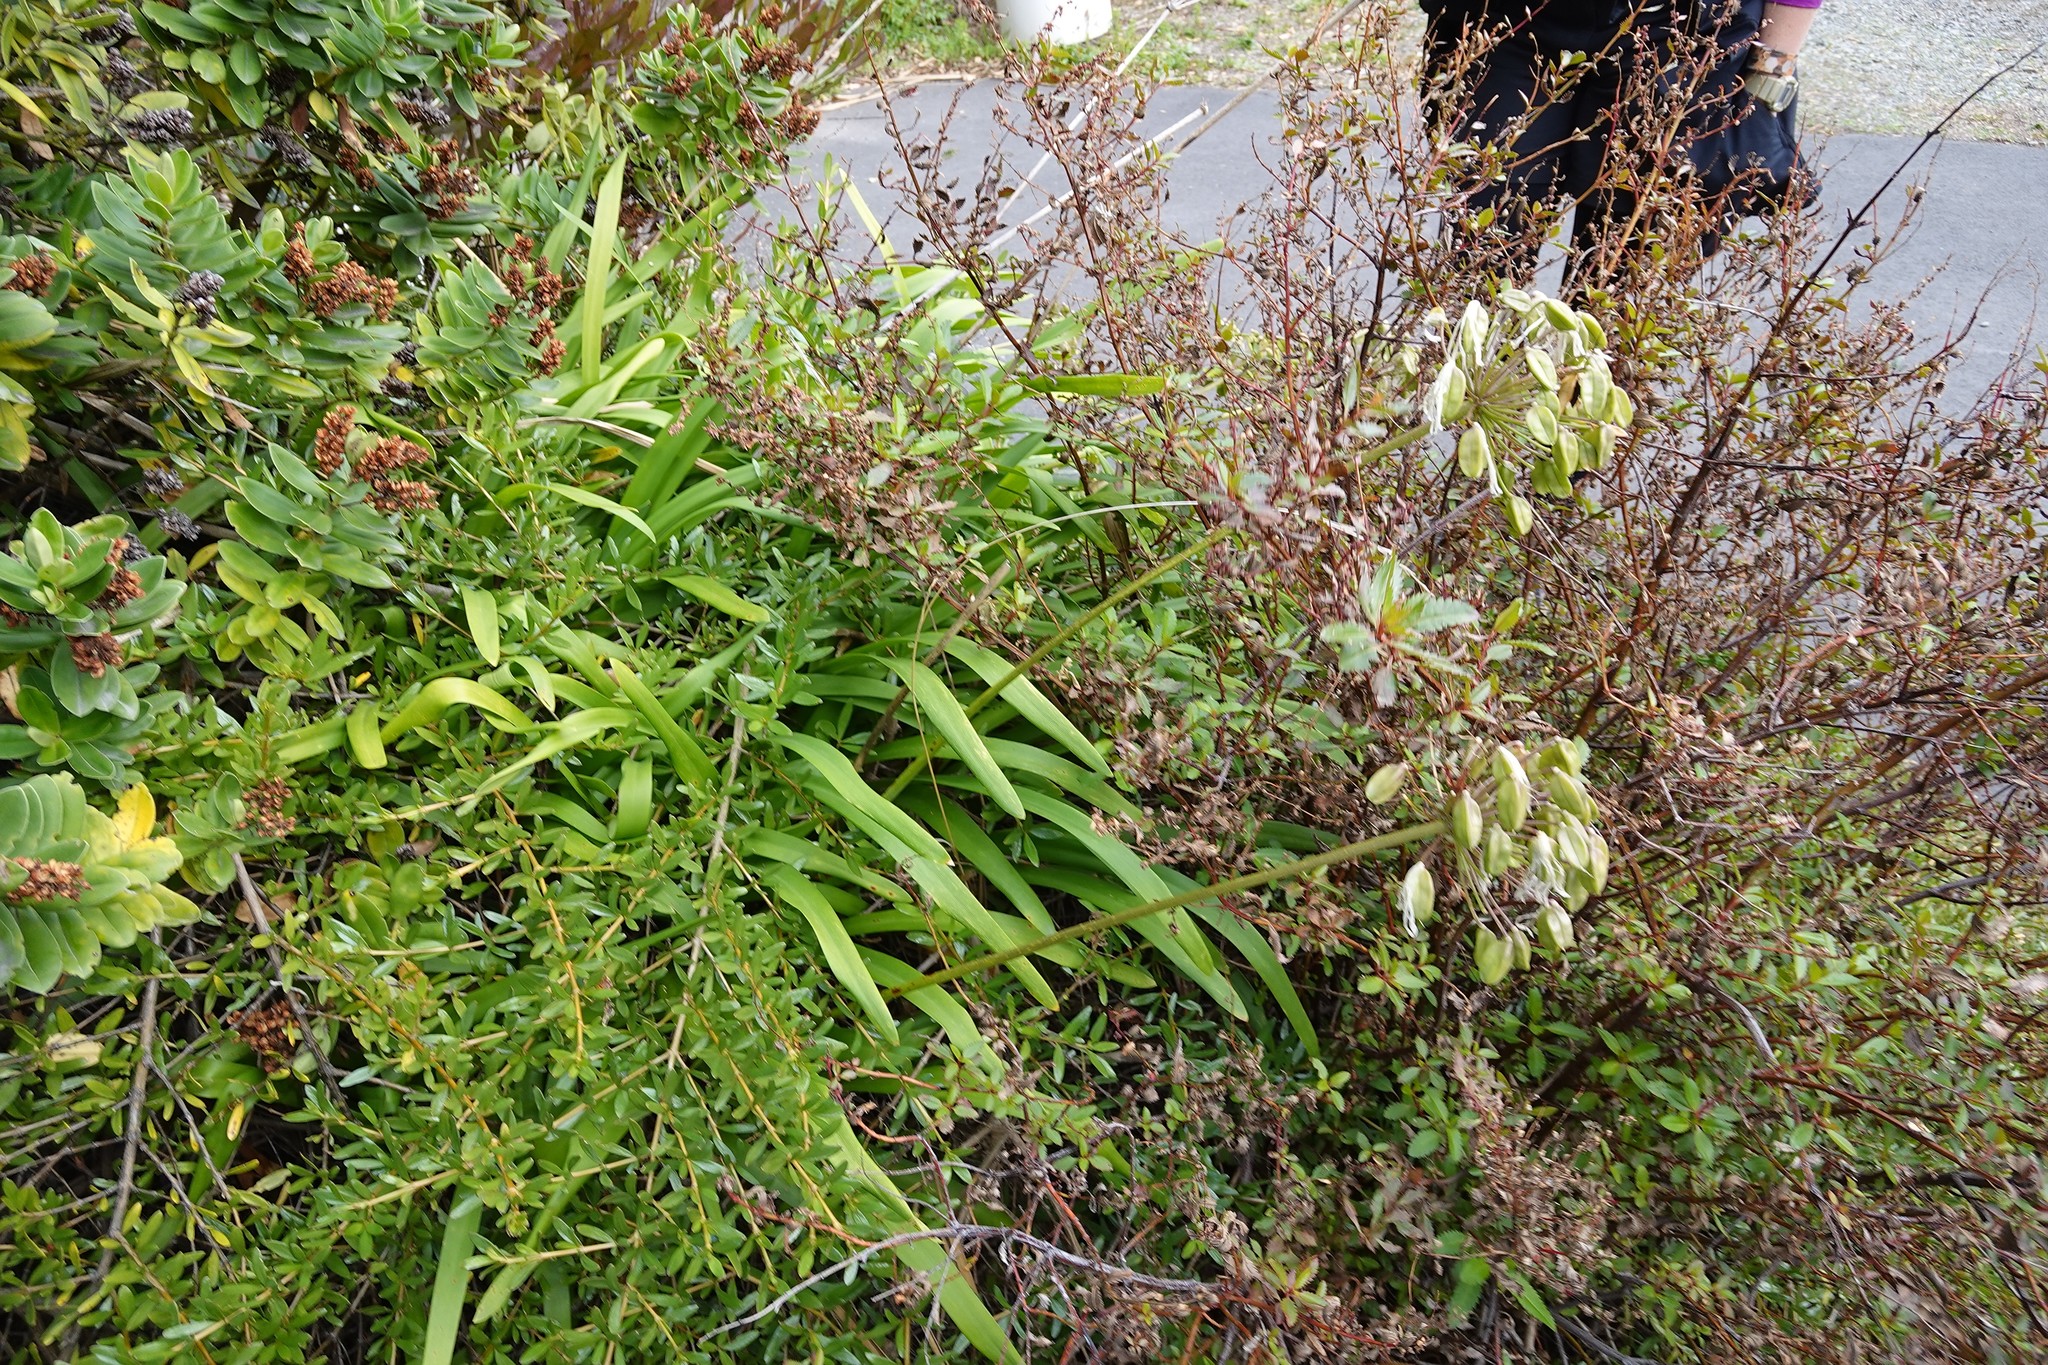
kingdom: Plantae
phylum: Tracheophyta
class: Liliopsida
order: Asparagales
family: Amaryllidaceae
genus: Agapanthus
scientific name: Agapanthus praecox
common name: African-lily
